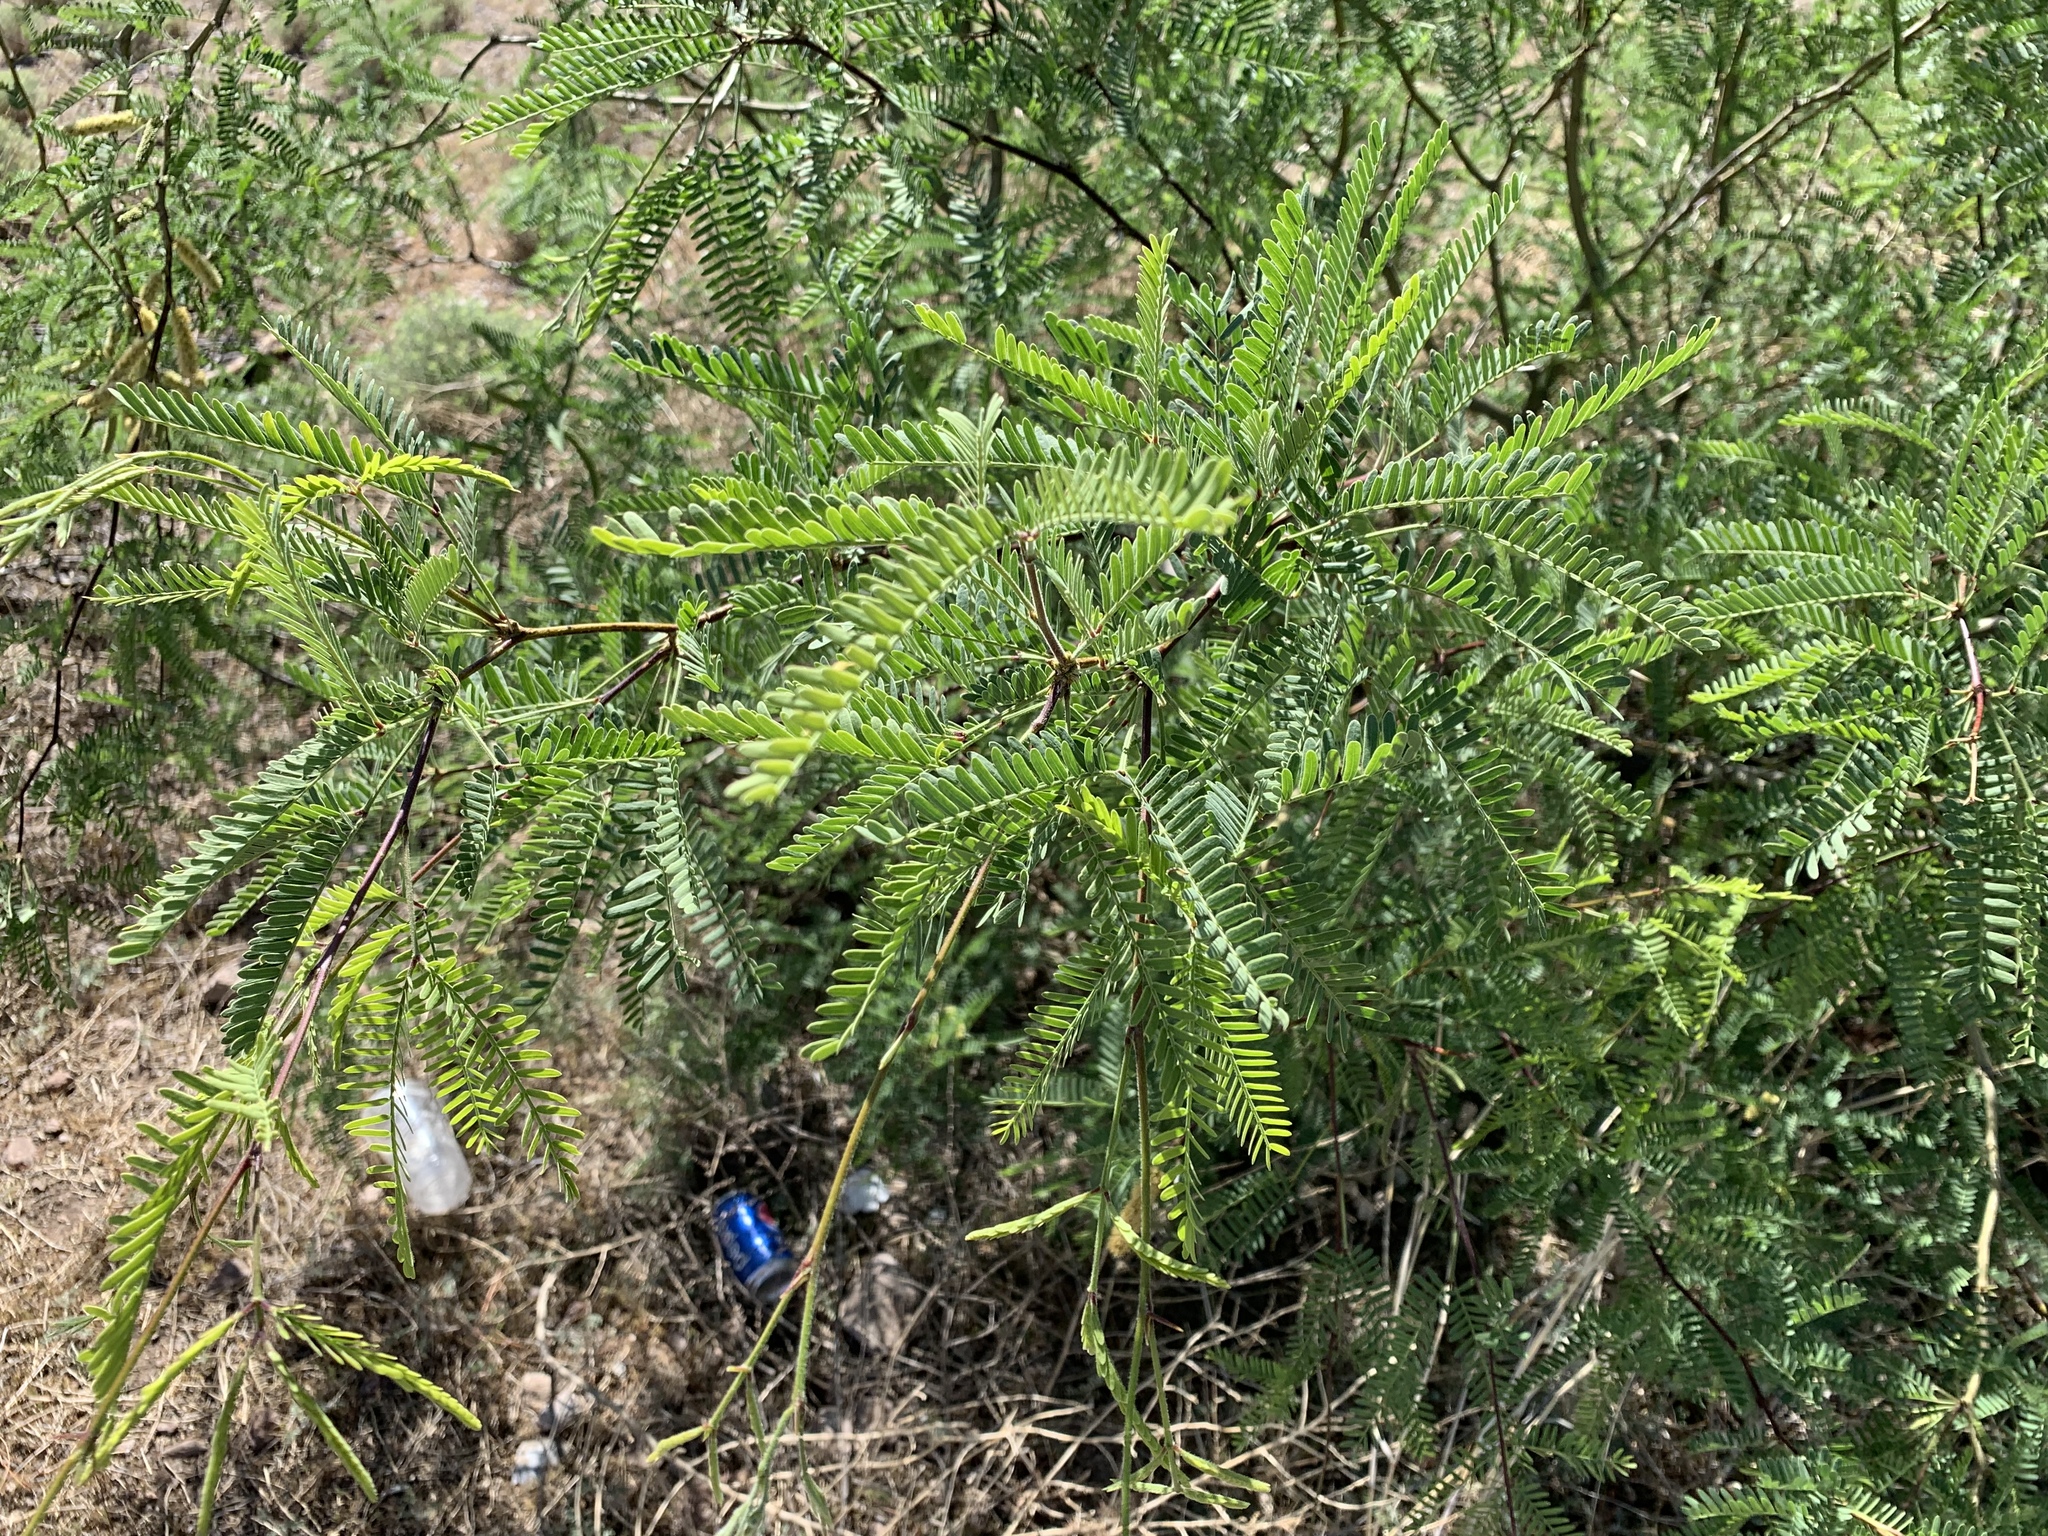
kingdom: Plantae
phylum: Tracheophyta
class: Magnoliopsida
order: Fabales
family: Fabaceae
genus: Prosopis
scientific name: Prosopis velutina
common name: Velvet mesquite
